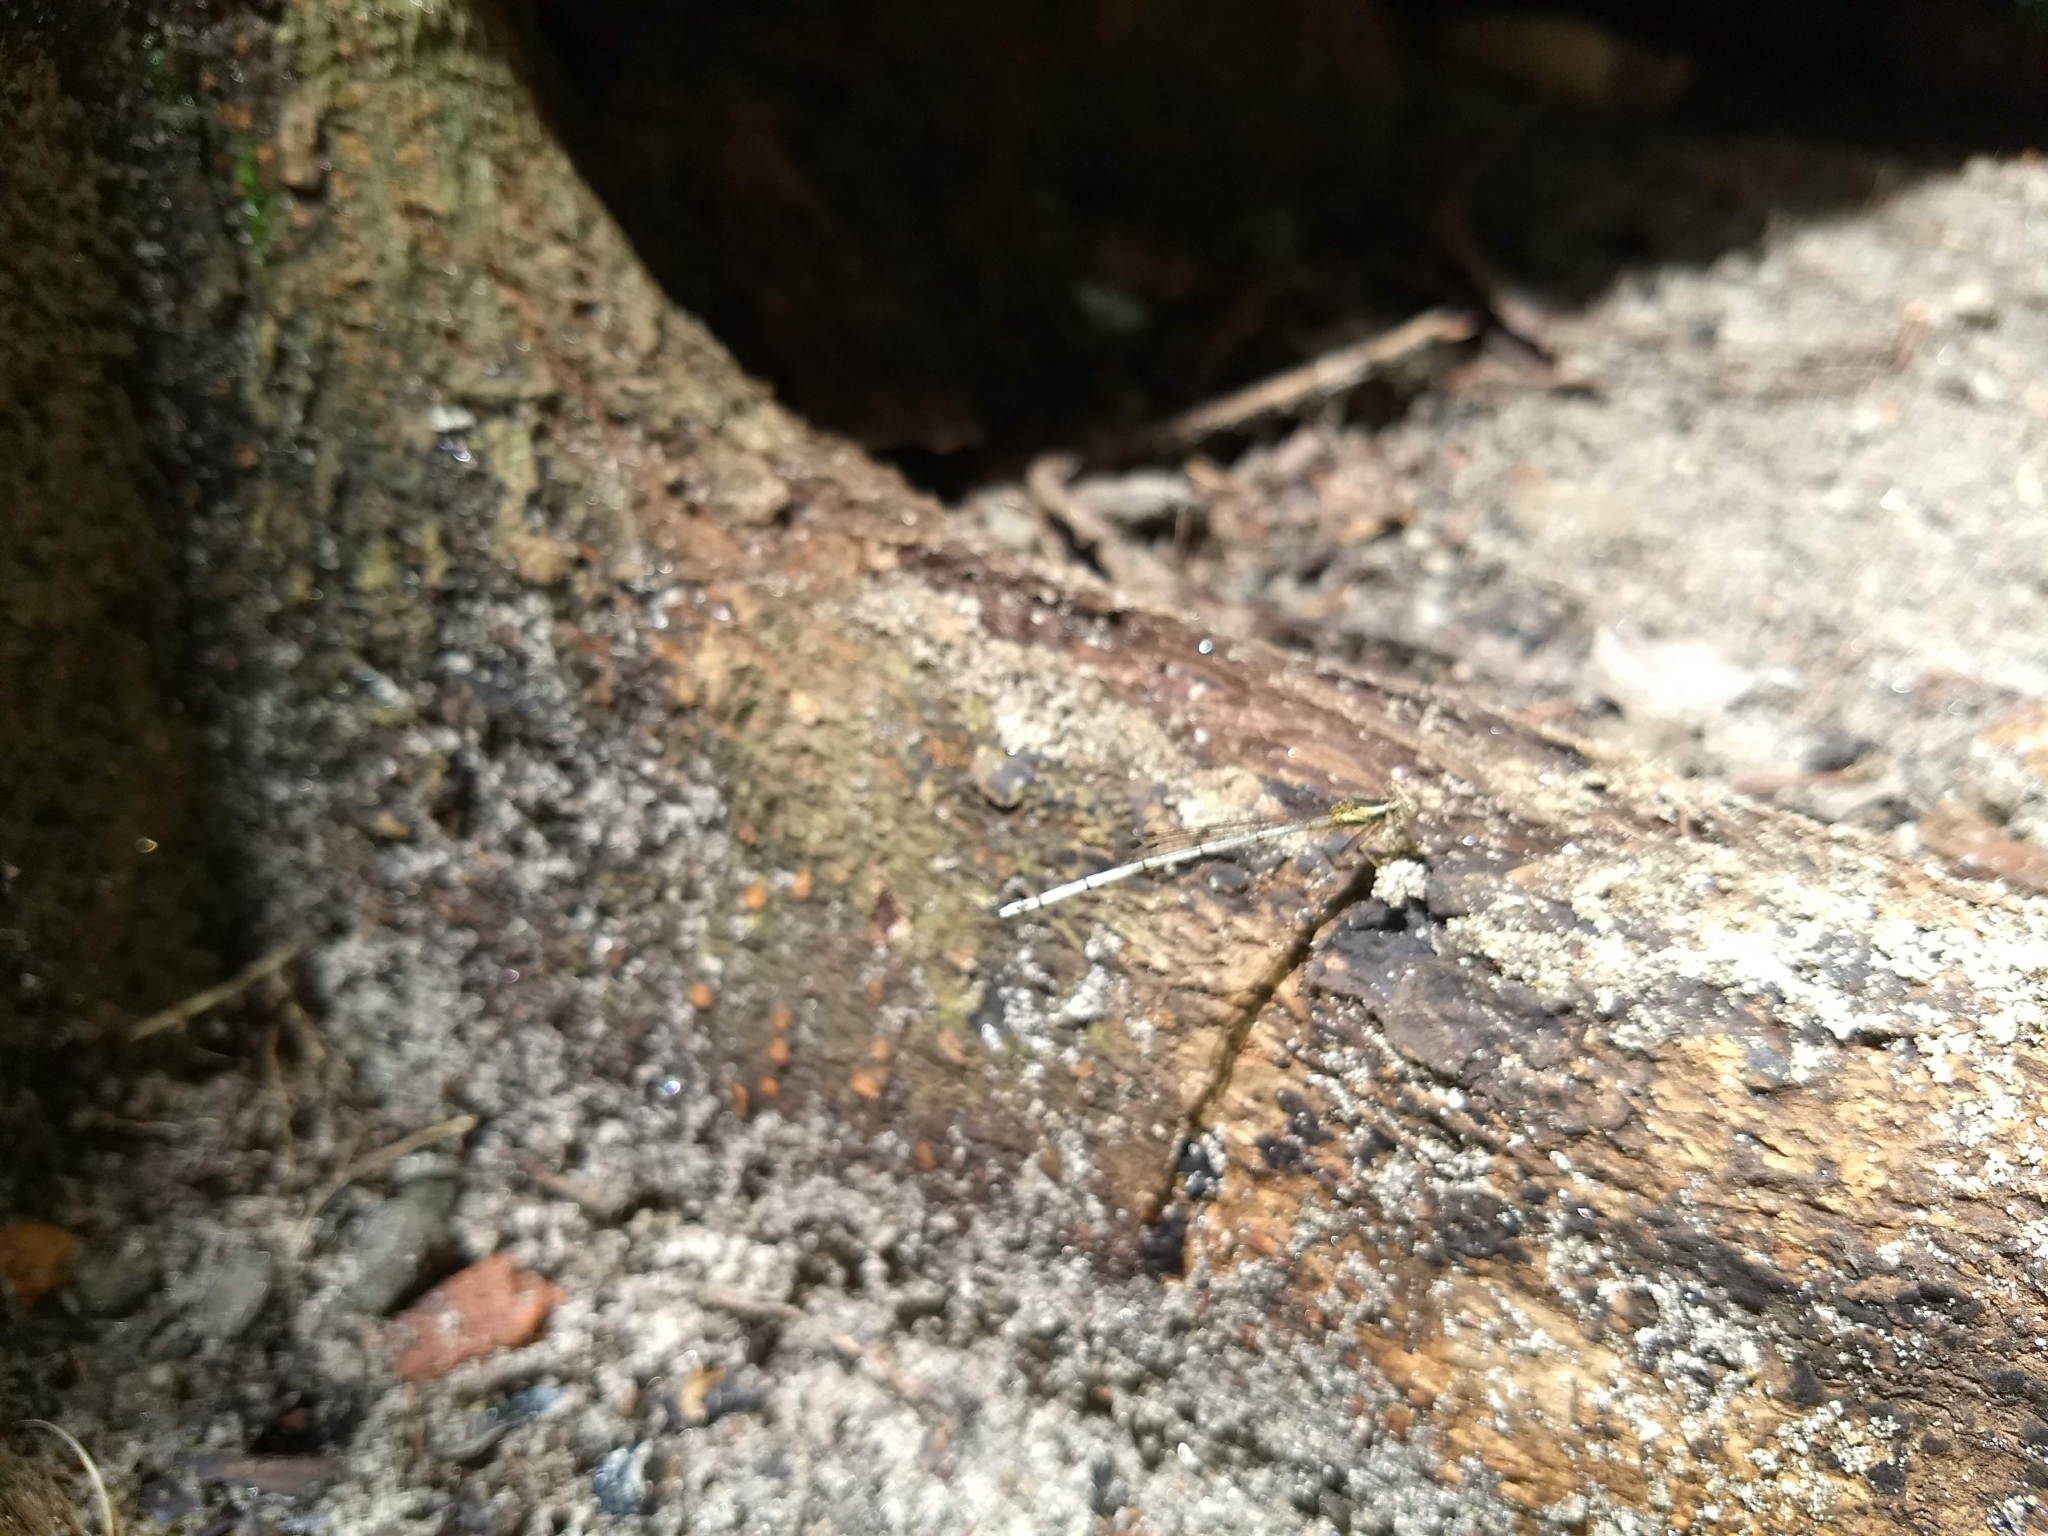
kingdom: Animalia
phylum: Arthropoda
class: Insecta
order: Odonata
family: Platycnemididae
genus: Copera
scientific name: Copera marginipes
